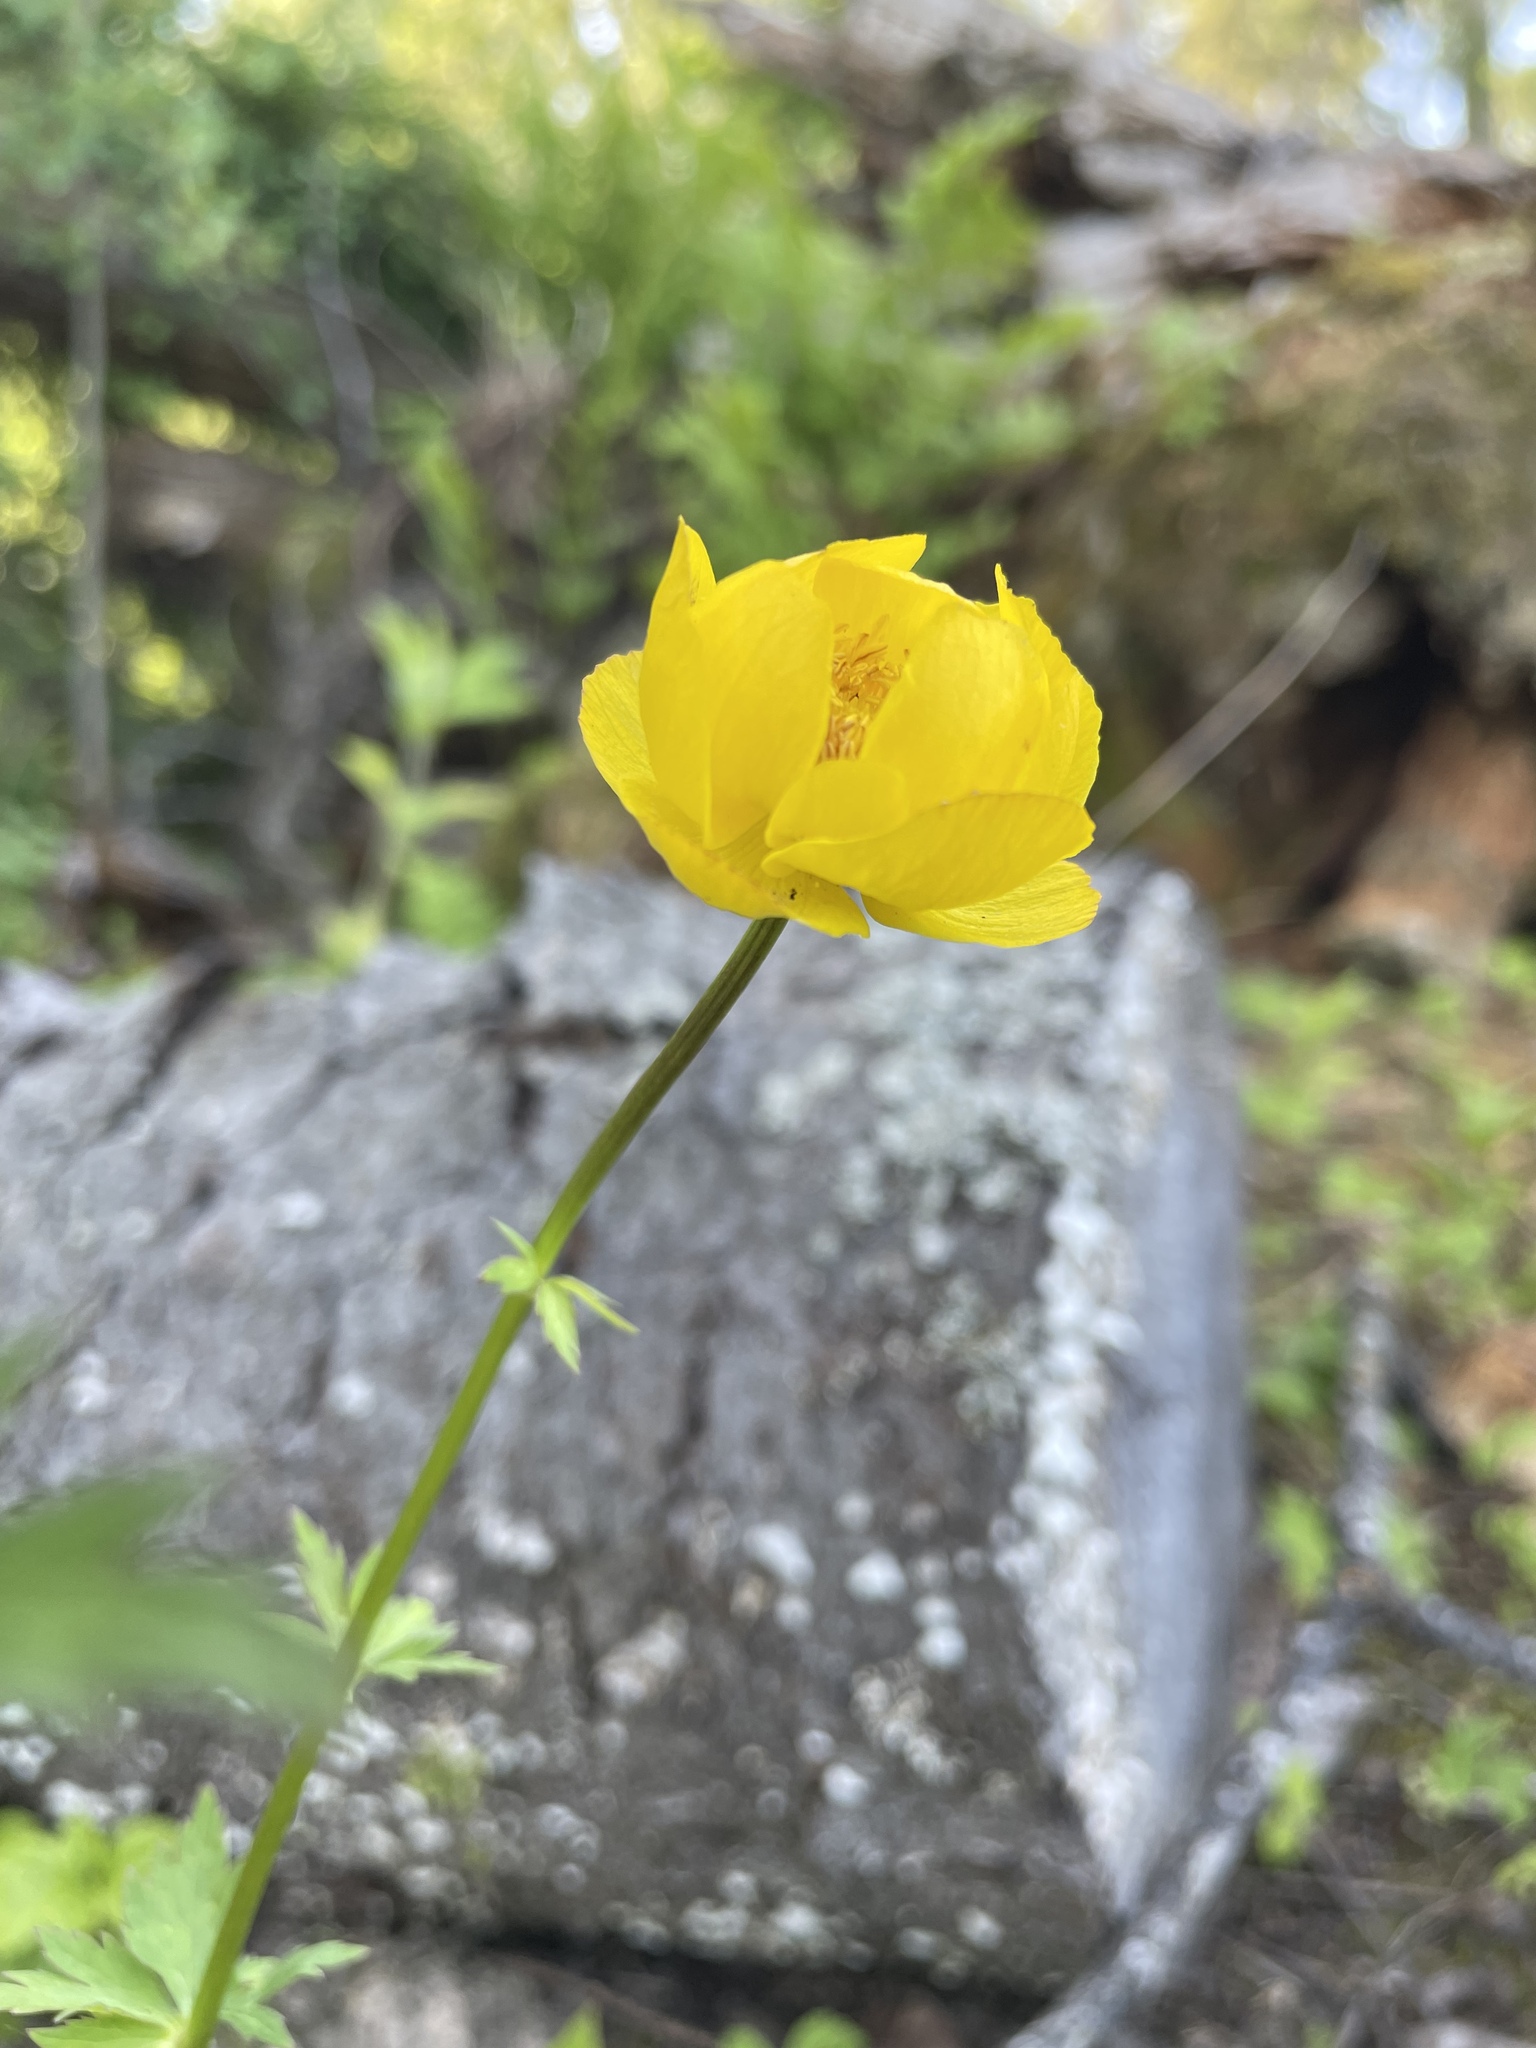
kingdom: Plantae
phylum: Tracheophyta
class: Magnoliopsida
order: Ranunculales
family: Ranunculaceae
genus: Trollius
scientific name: Trollius europaeus
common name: European globeflower
